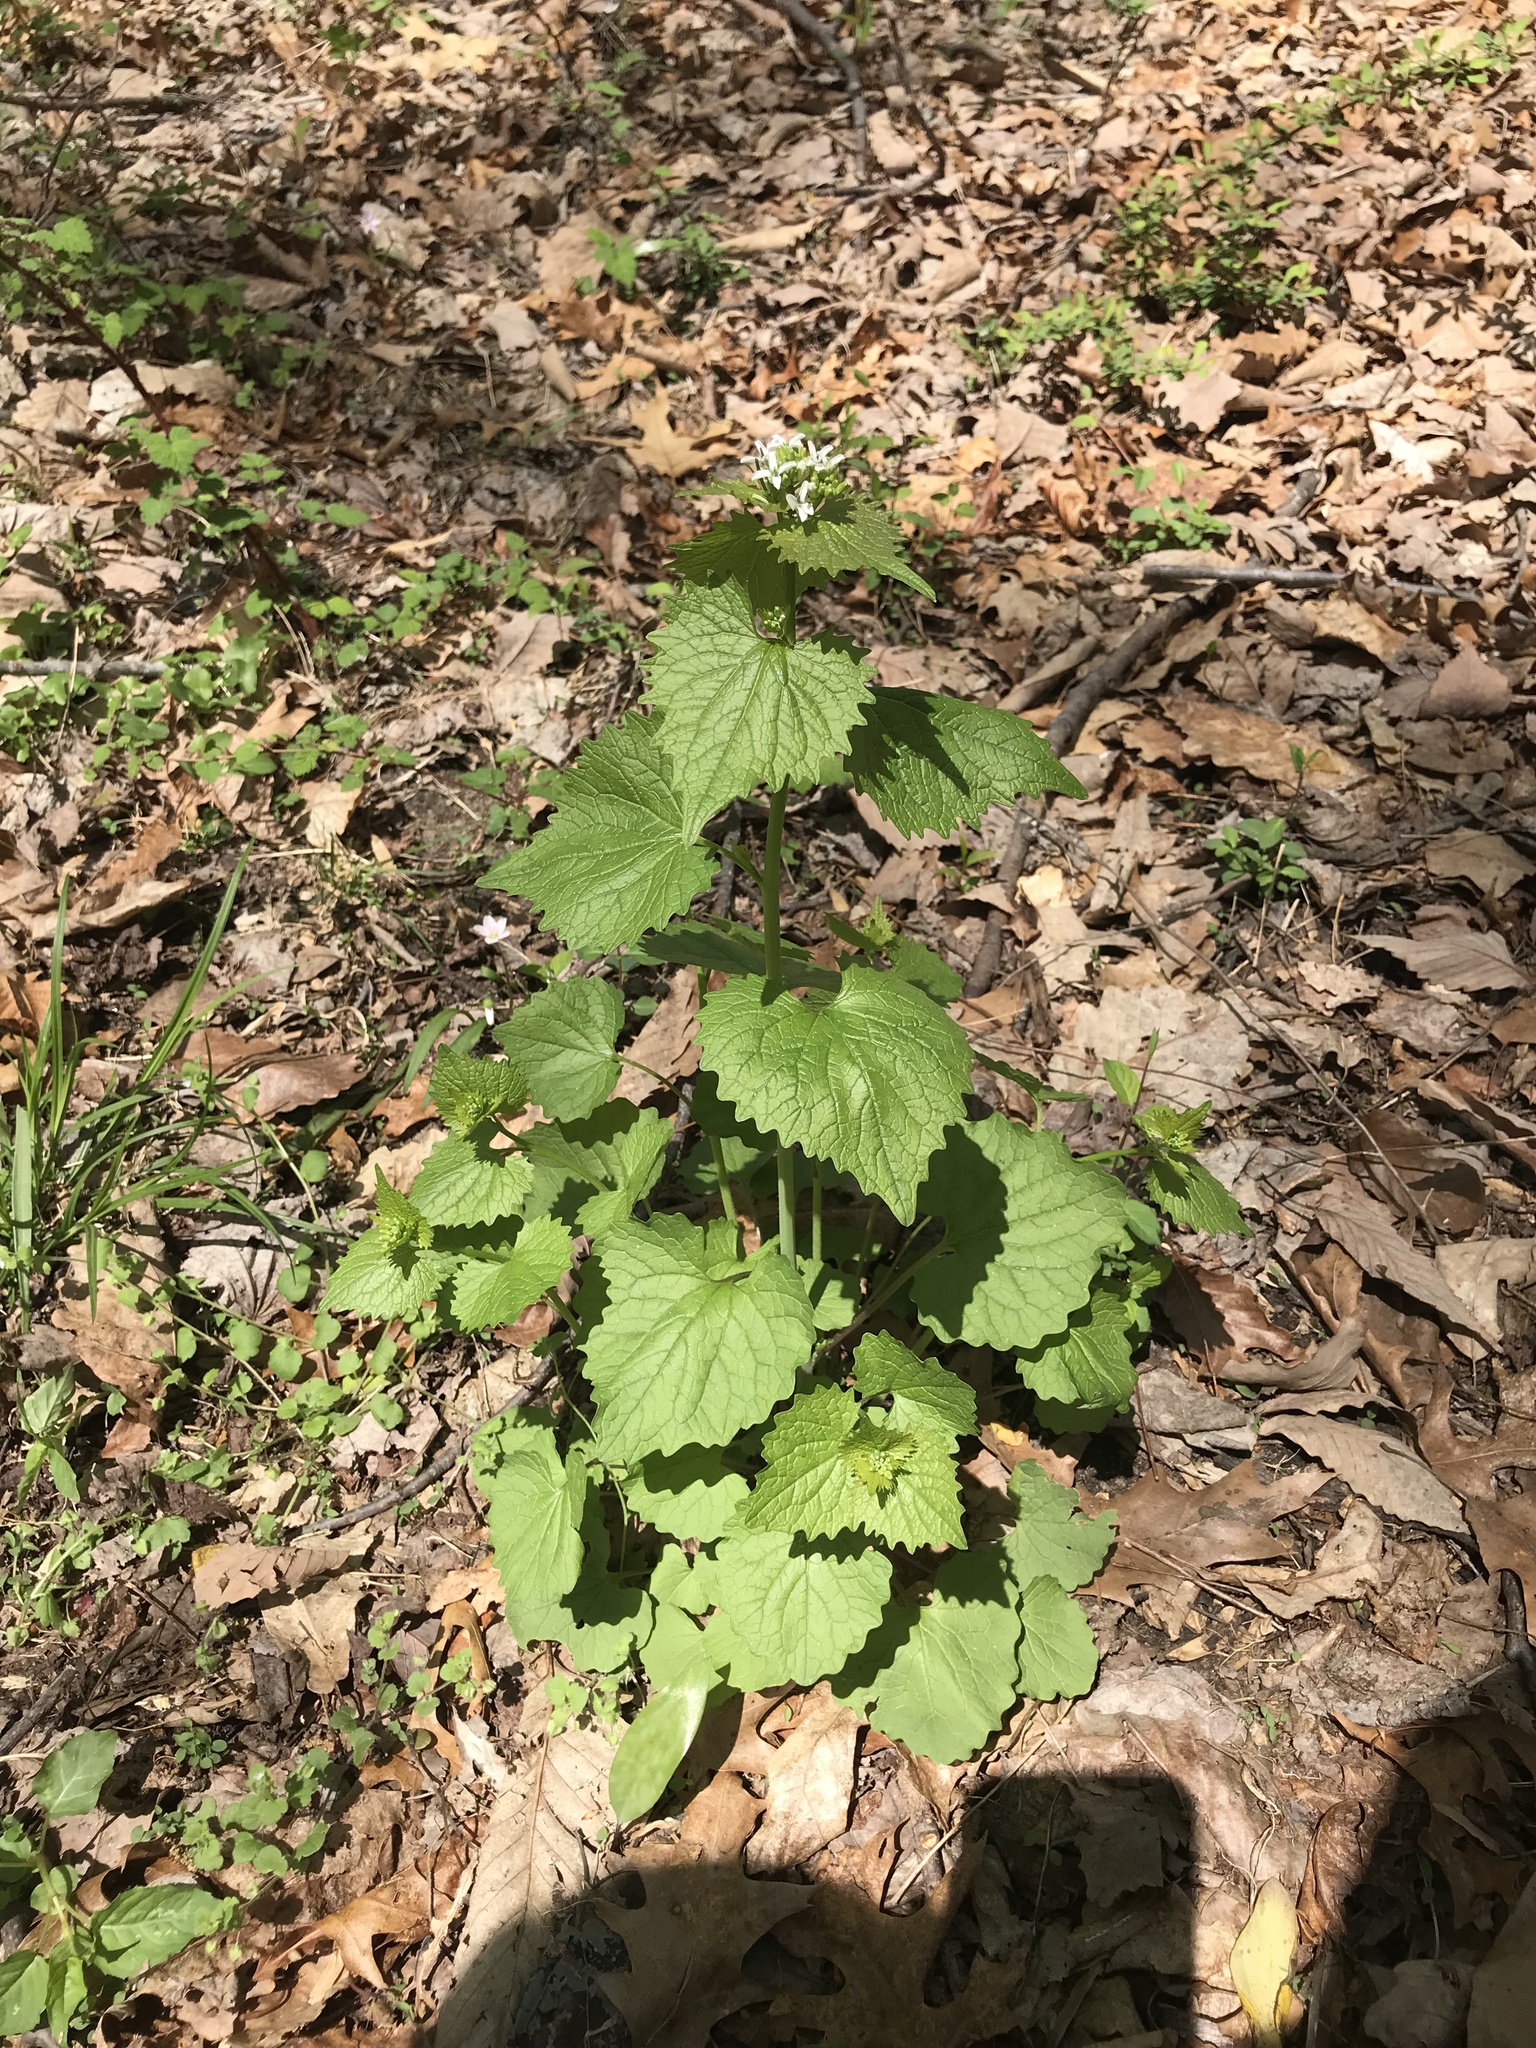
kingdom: Plantae
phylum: Tracheophyta
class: Magnoliopsida
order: Brassicales
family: Brassicaceae
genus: Alliaria
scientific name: Alliaria petiolata
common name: Garlic mustard
